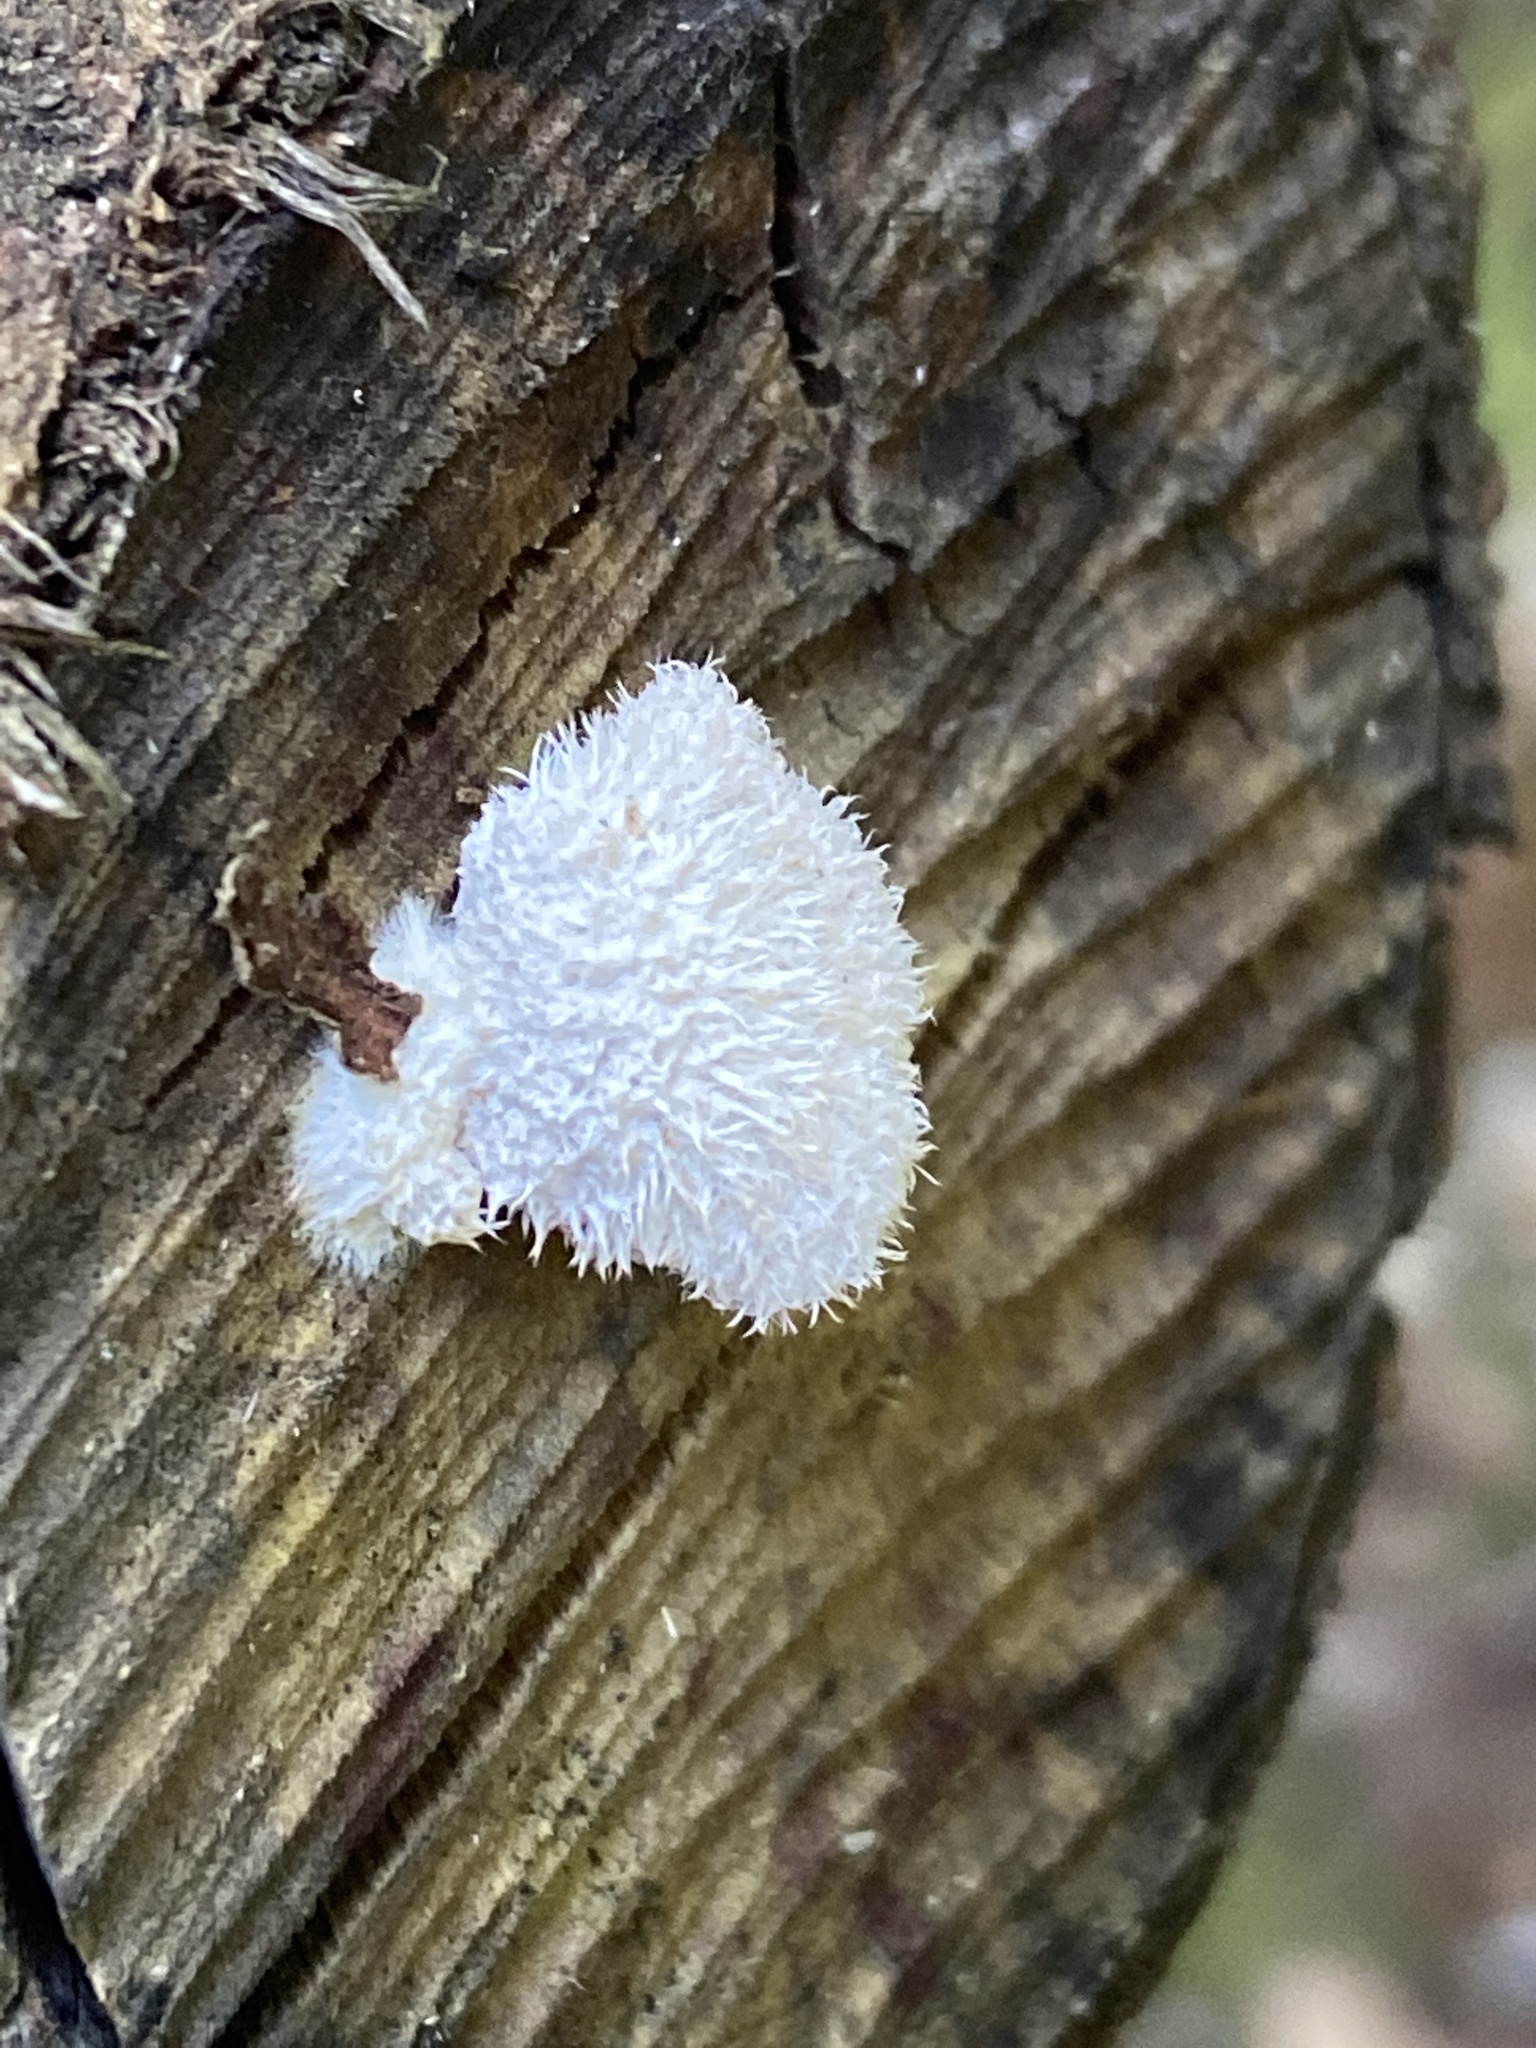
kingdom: Fungi
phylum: Basidiomycota
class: Agaricomycetes
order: Agaricales
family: Schizophyllaceae
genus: Schizophyllum
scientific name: Schizophyllum commune
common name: Common porecrust
